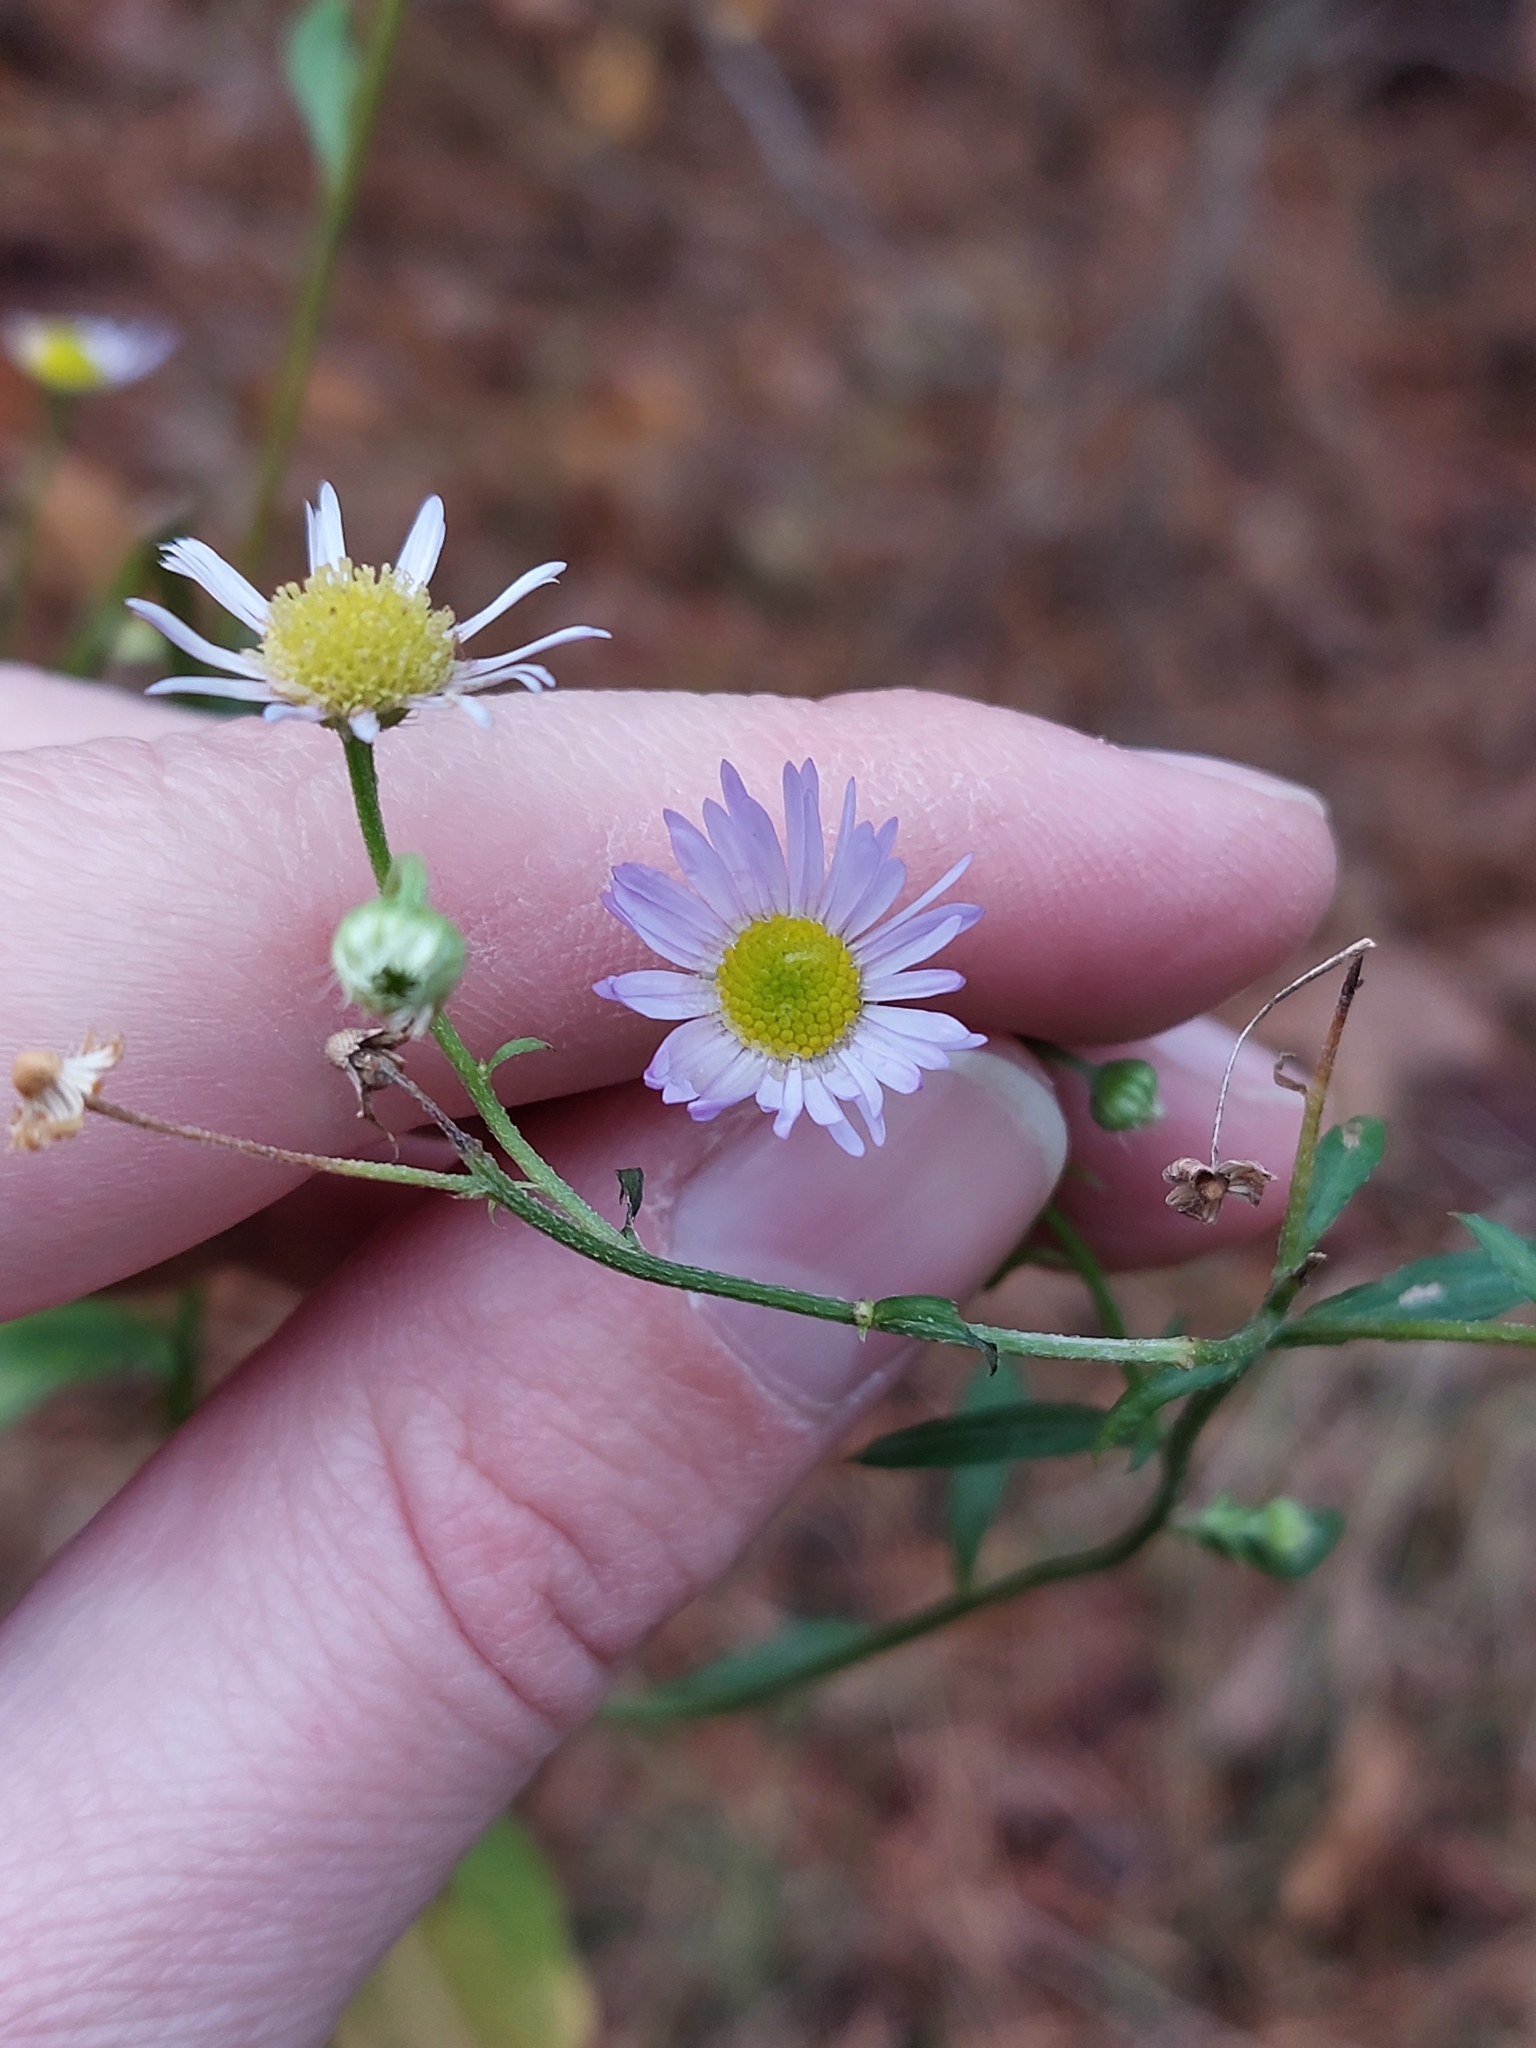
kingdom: Plantae
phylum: Tracheophyta
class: Magnoliopsida
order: Asterales
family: Asteraceae
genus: Erigeron
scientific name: Erigeron annuus
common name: Tall fleabane
